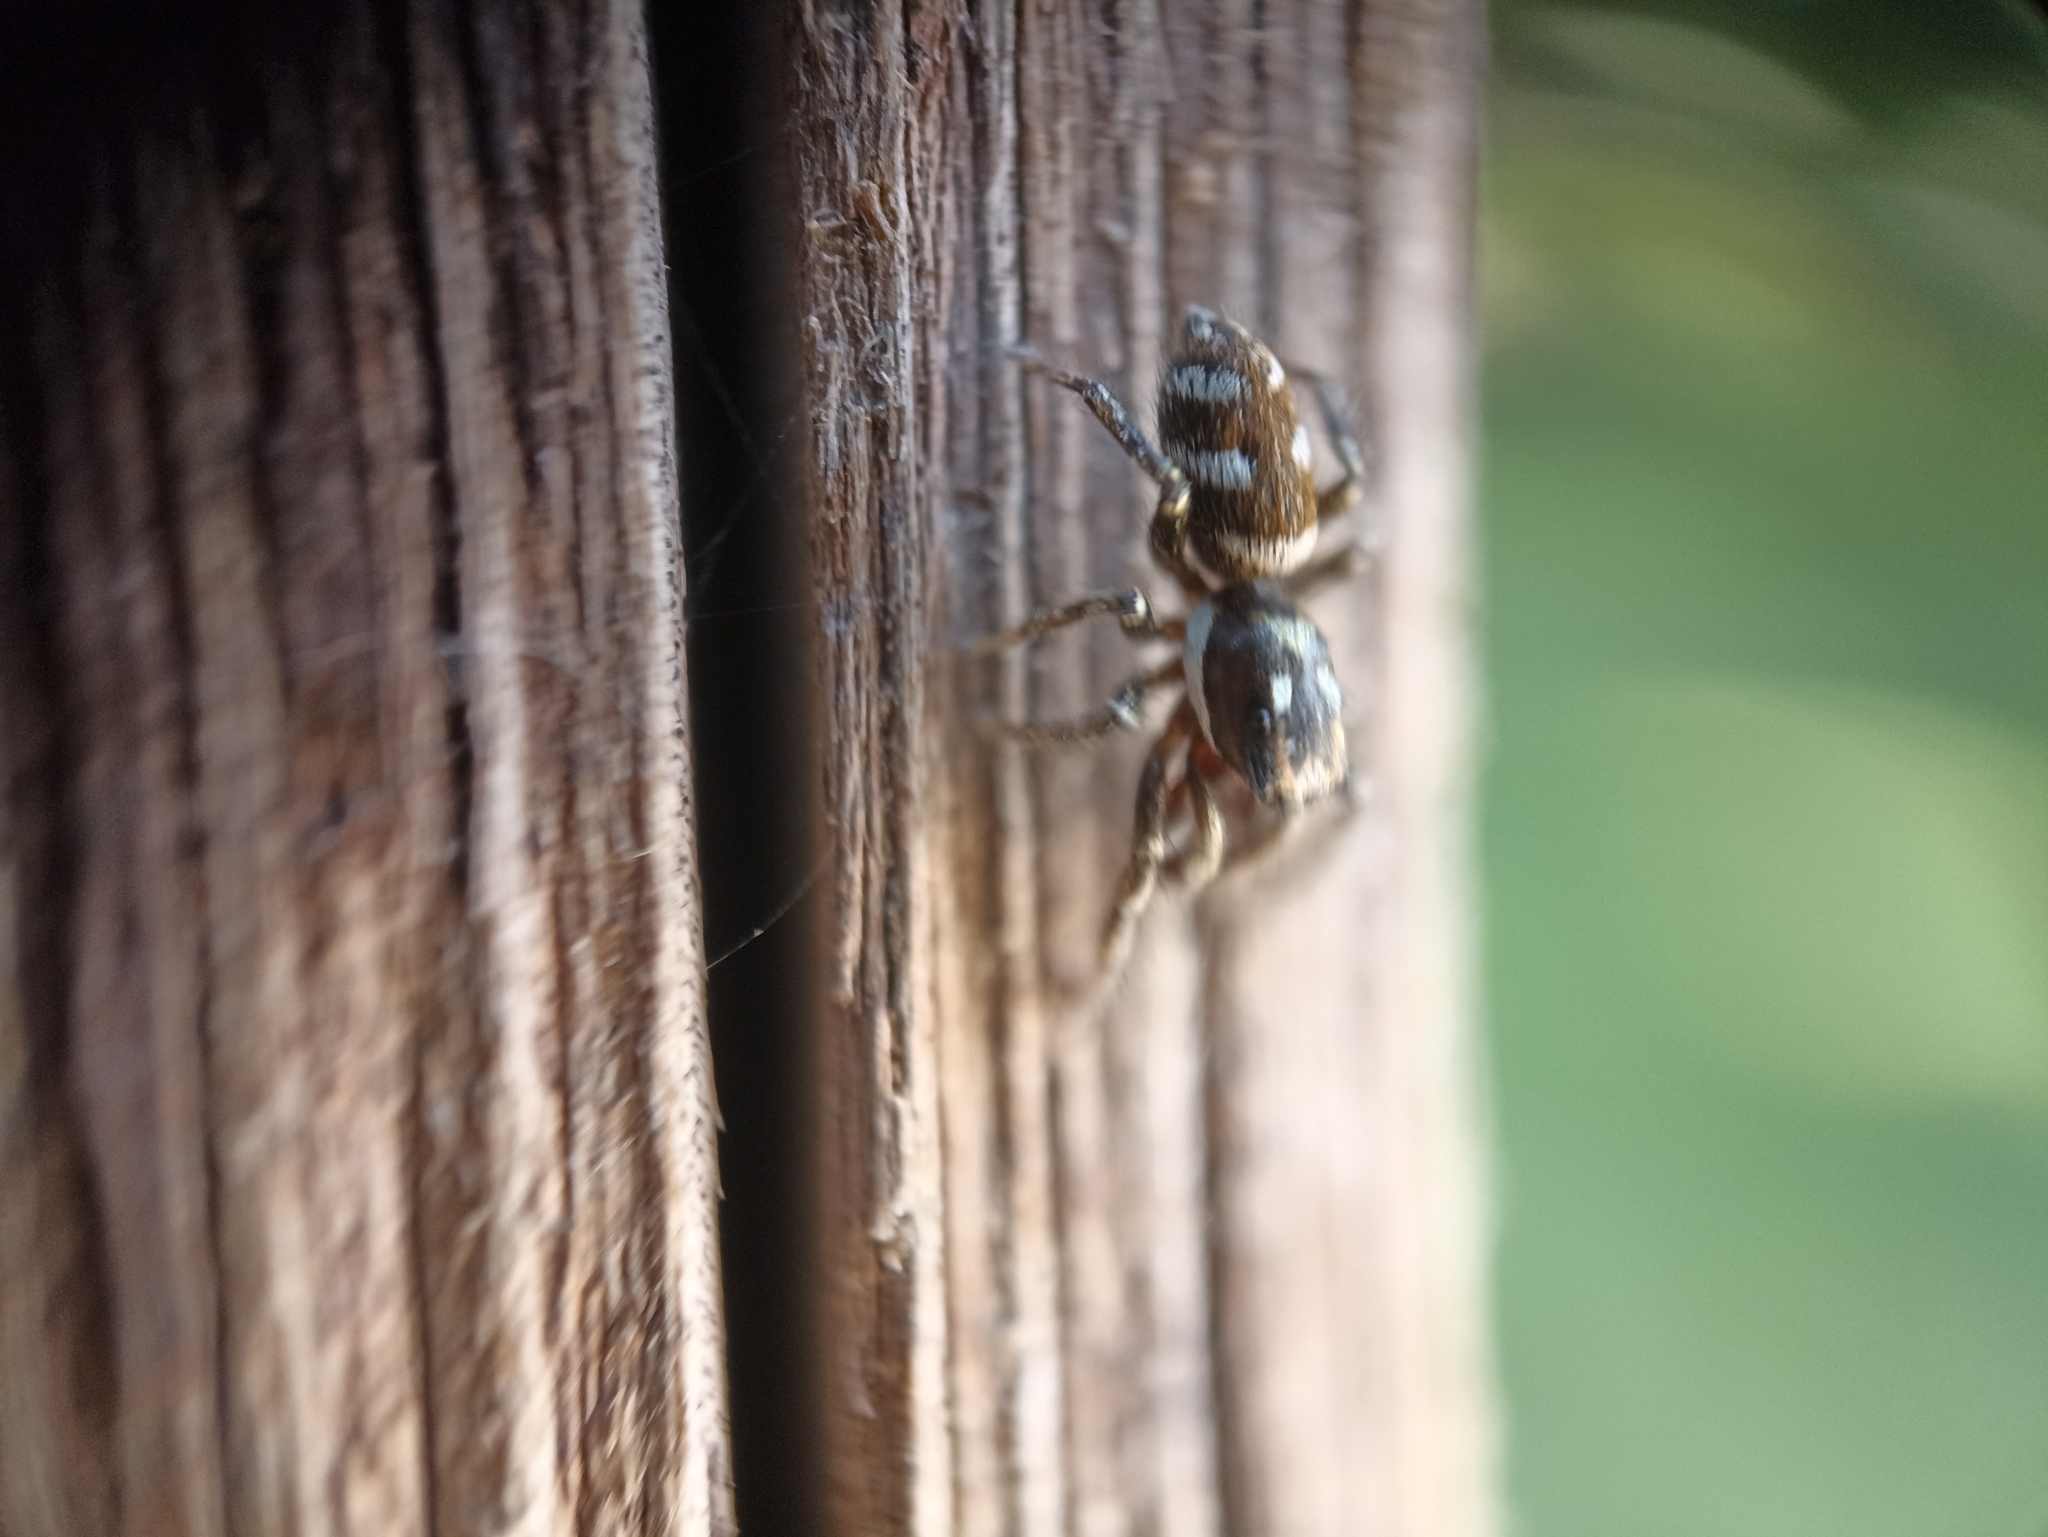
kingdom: Animalia
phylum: Arthropoda
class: Arachnida
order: Araneae
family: Salticidae
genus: Salticus
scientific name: Salticus scenicus
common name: Zebra jumper
